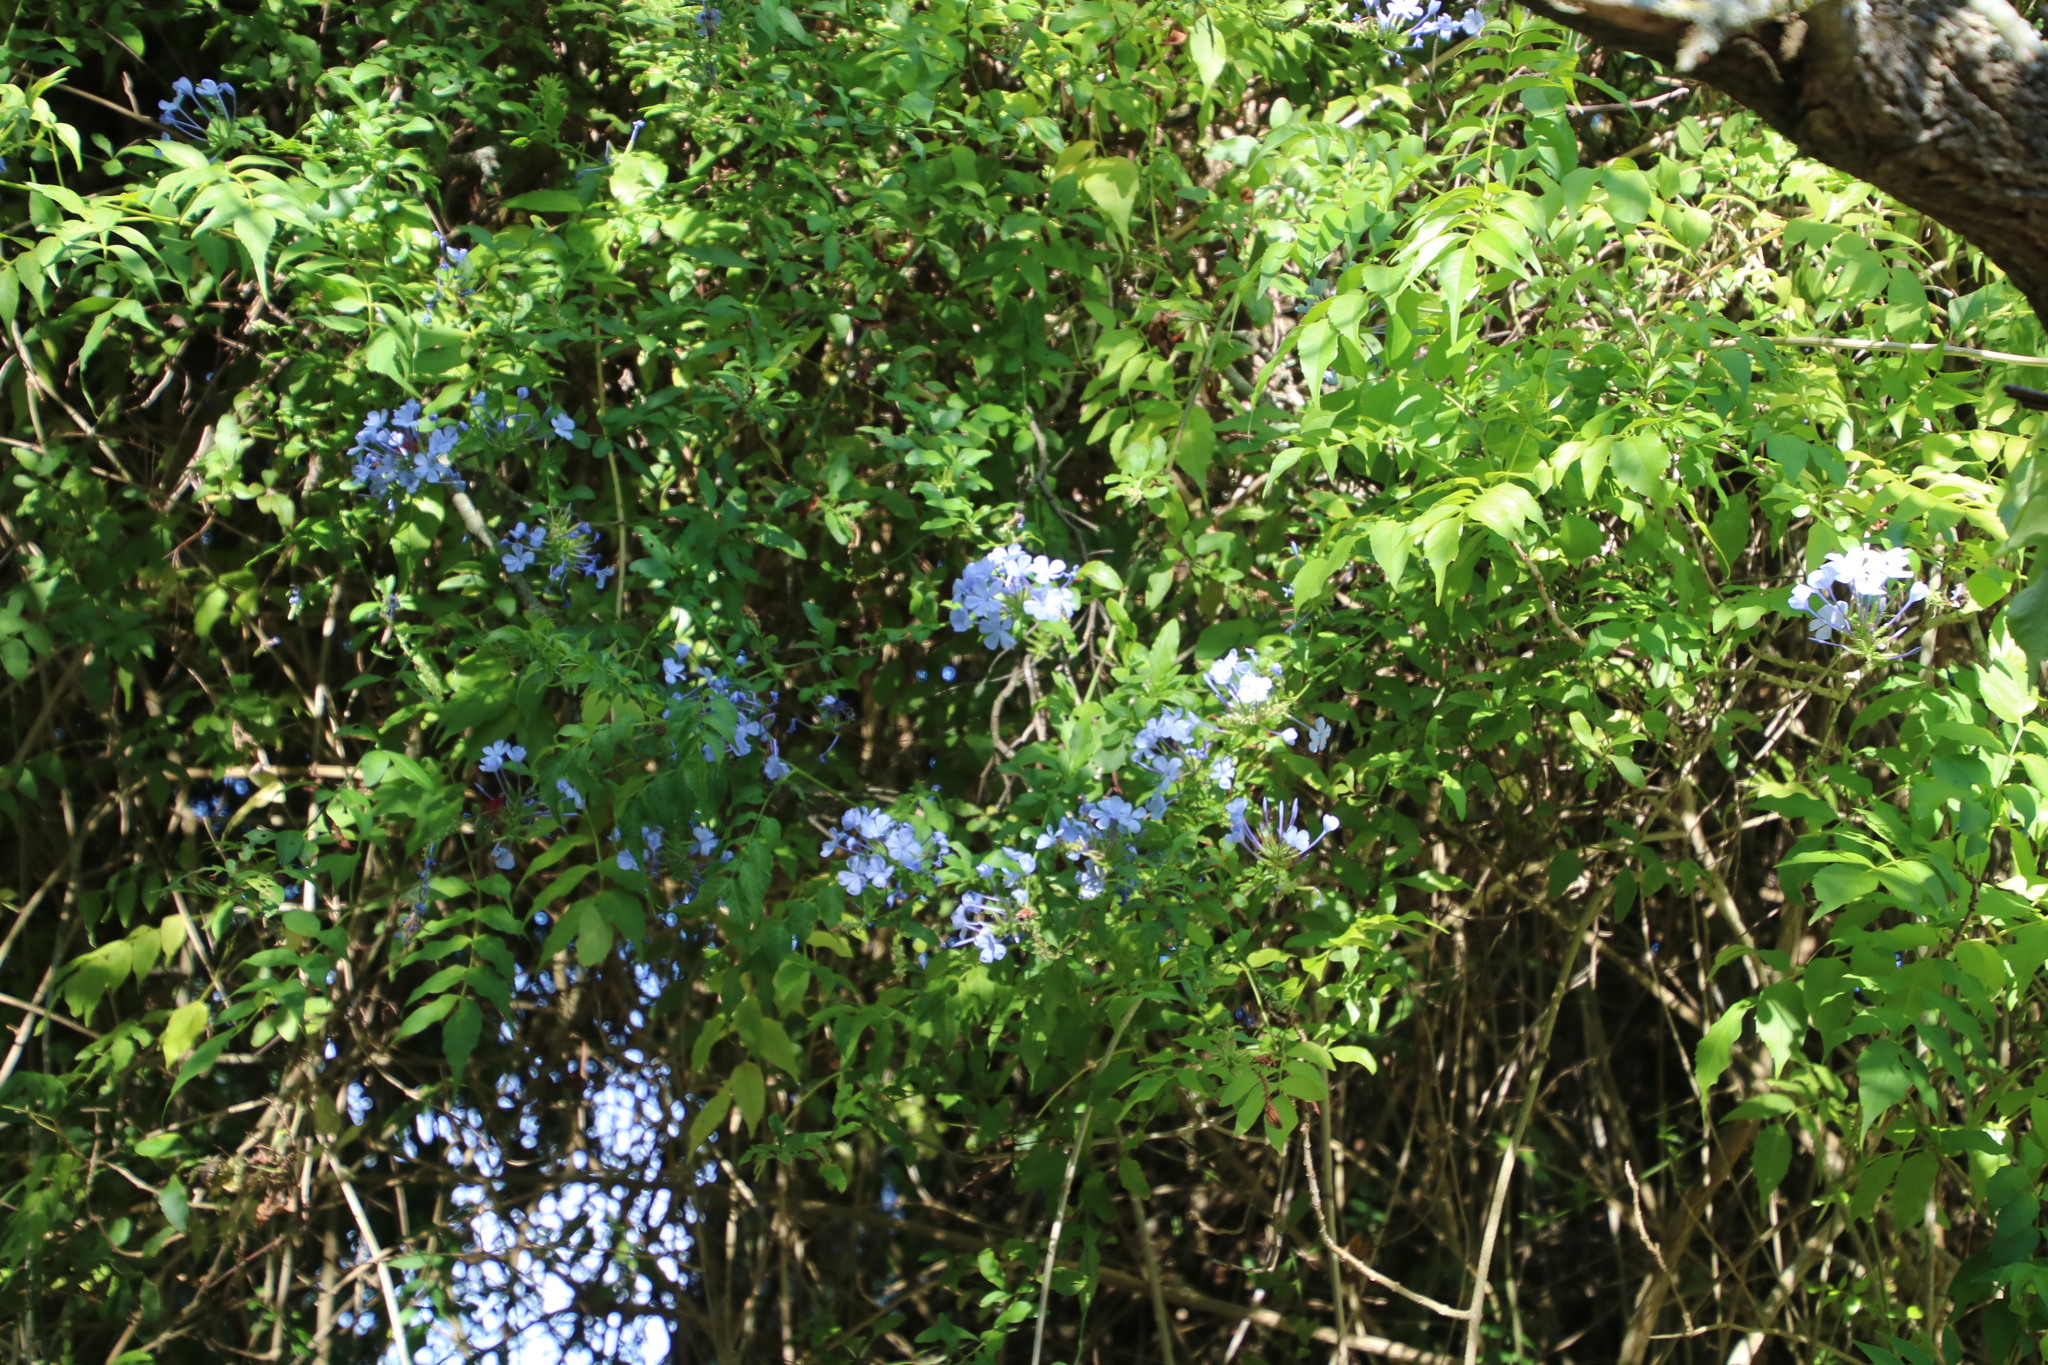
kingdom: Plantae
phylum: Tracheophyta
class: Magnoliopsida
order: Caryophyllales
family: Plumbaginaceae
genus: Plumbago
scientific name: Plumbago auriculata
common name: Cape leadwort
